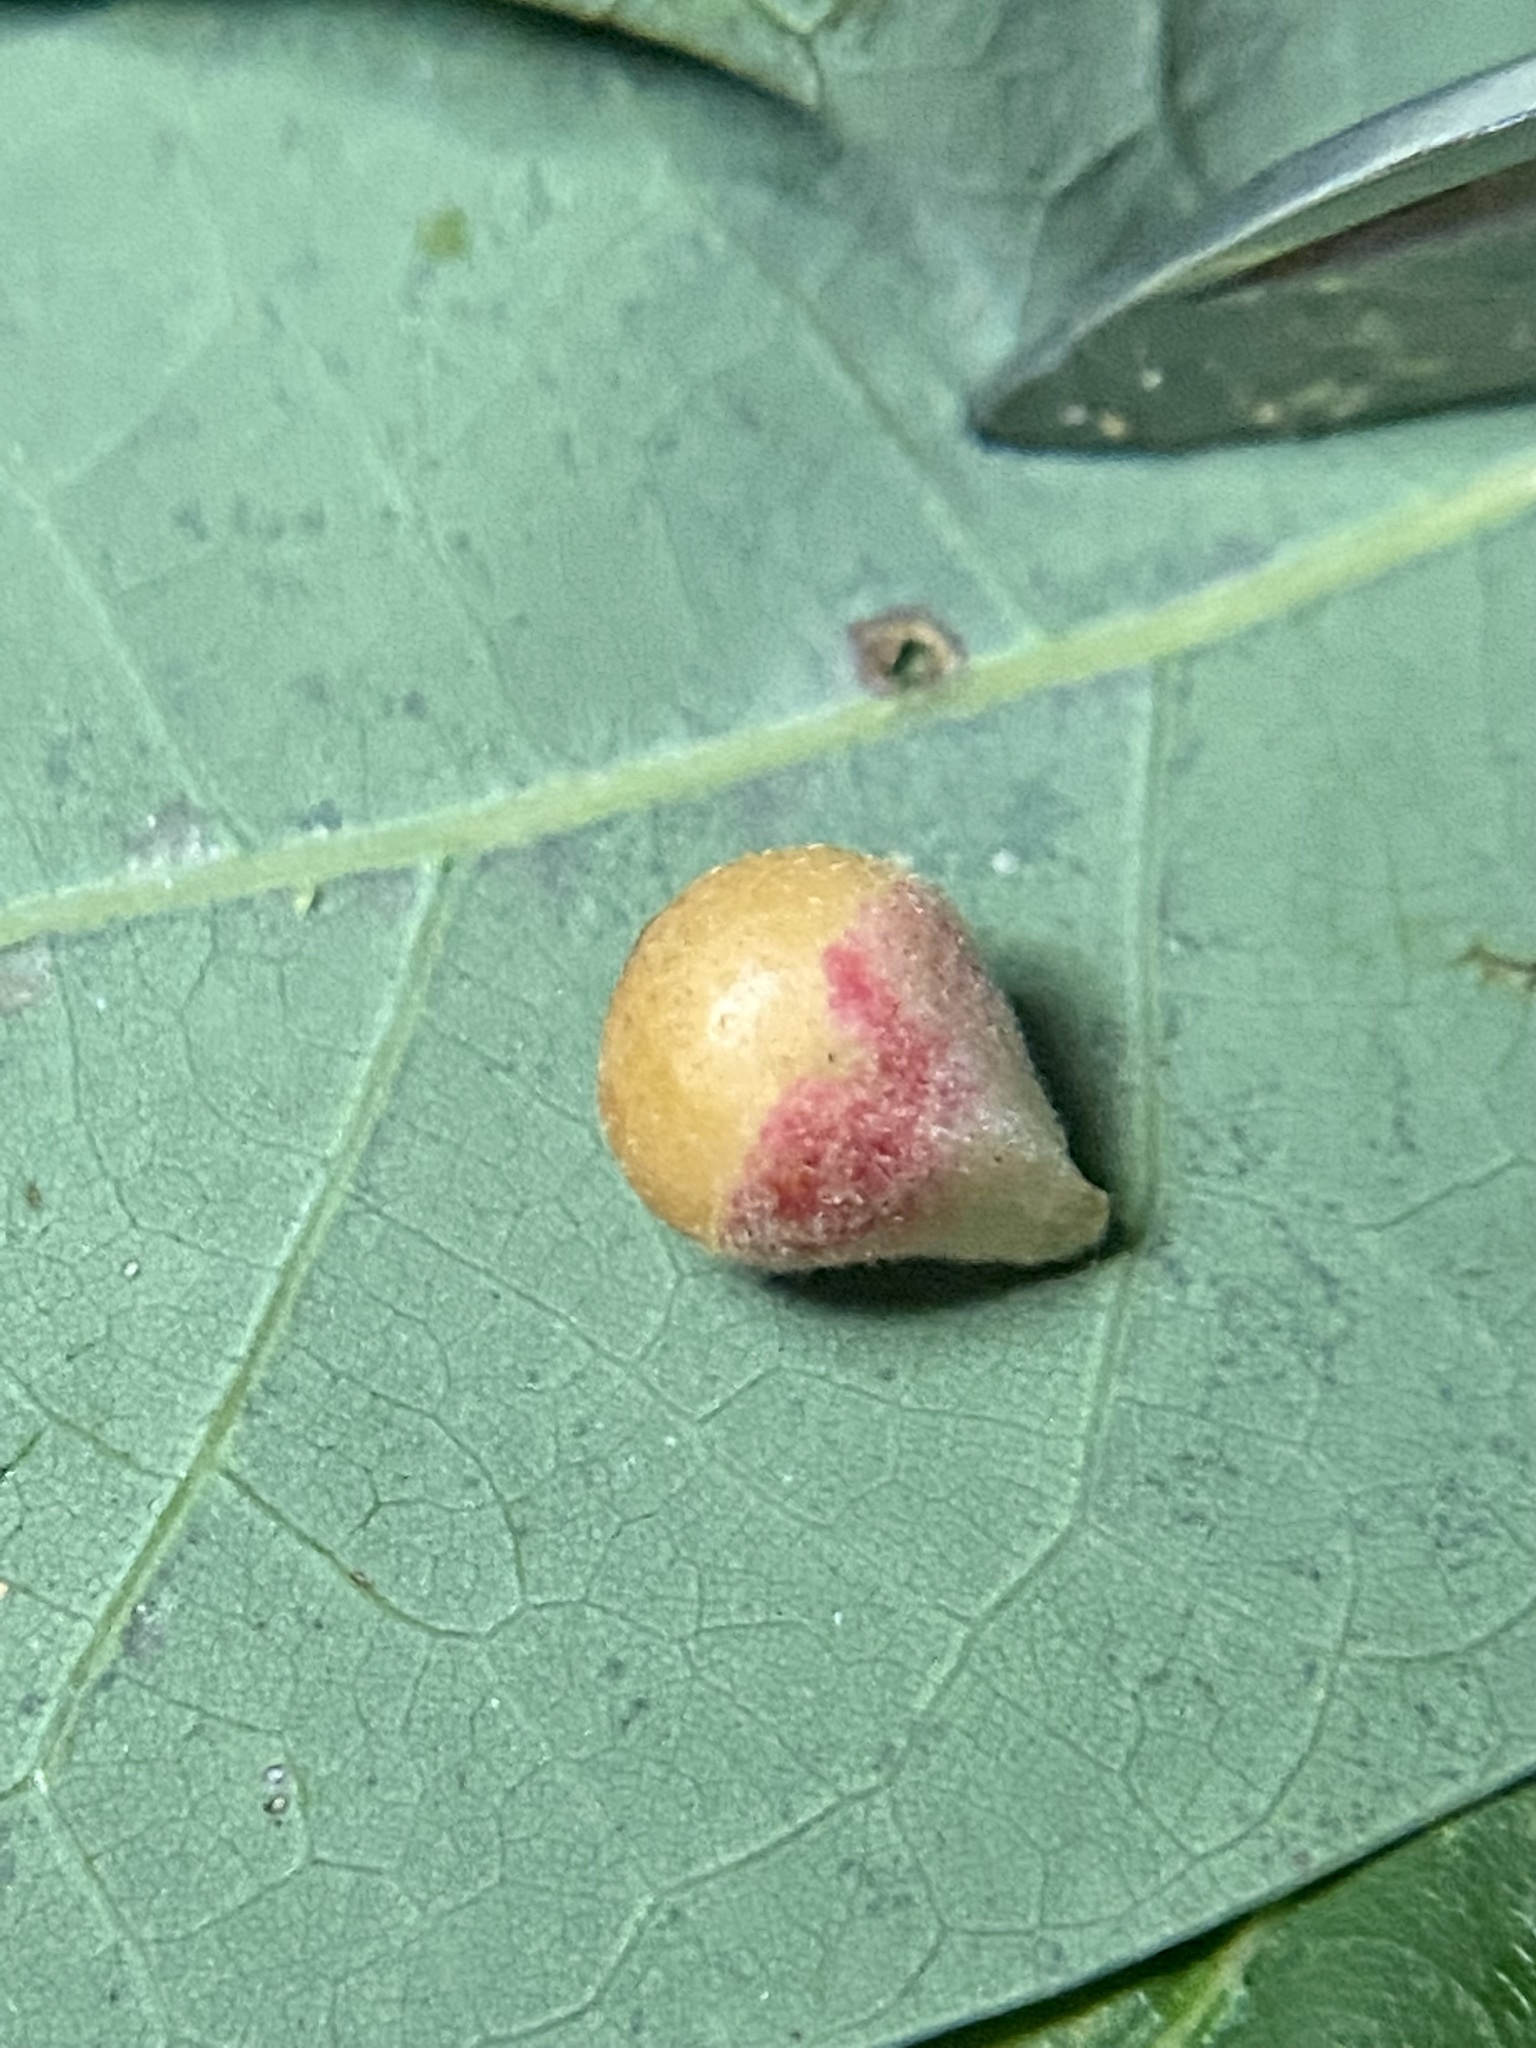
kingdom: Animalia
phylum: Arthropoda
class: Insecta
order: Hymenoptera
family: Cynipidae
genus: Andricus
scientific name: Andricus
